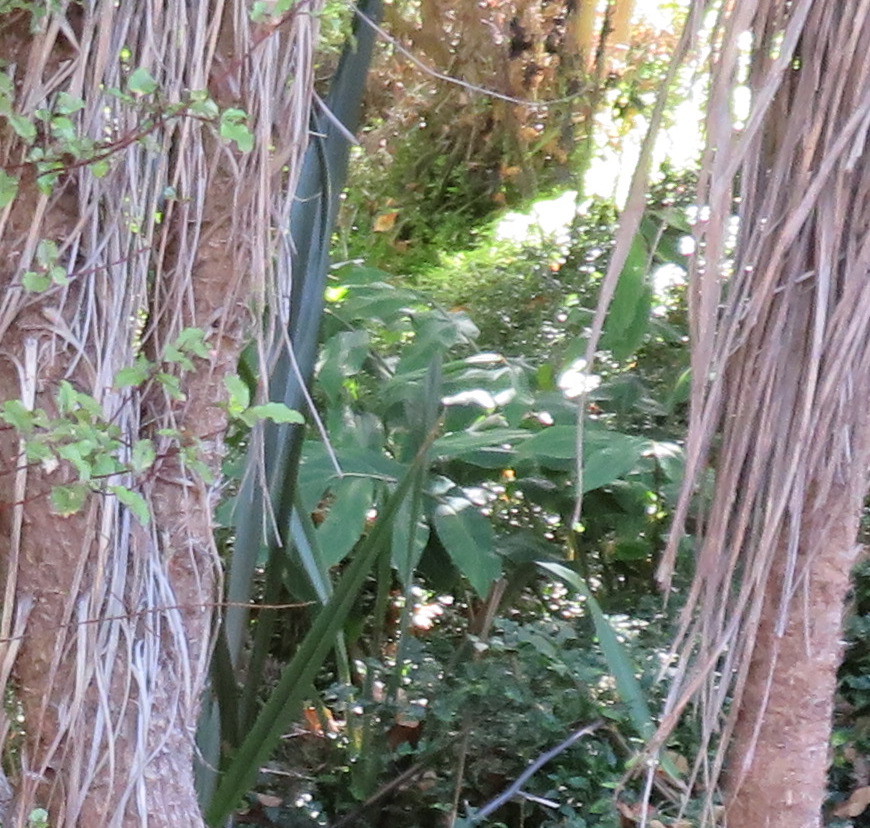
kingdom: Plantae
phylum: Tracheophyta
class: Liliopsida
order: Zingiberales
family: Zingiberaceae
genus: Hedychium
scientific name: Hedychium gardnerianum
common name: Himalayan ginger
